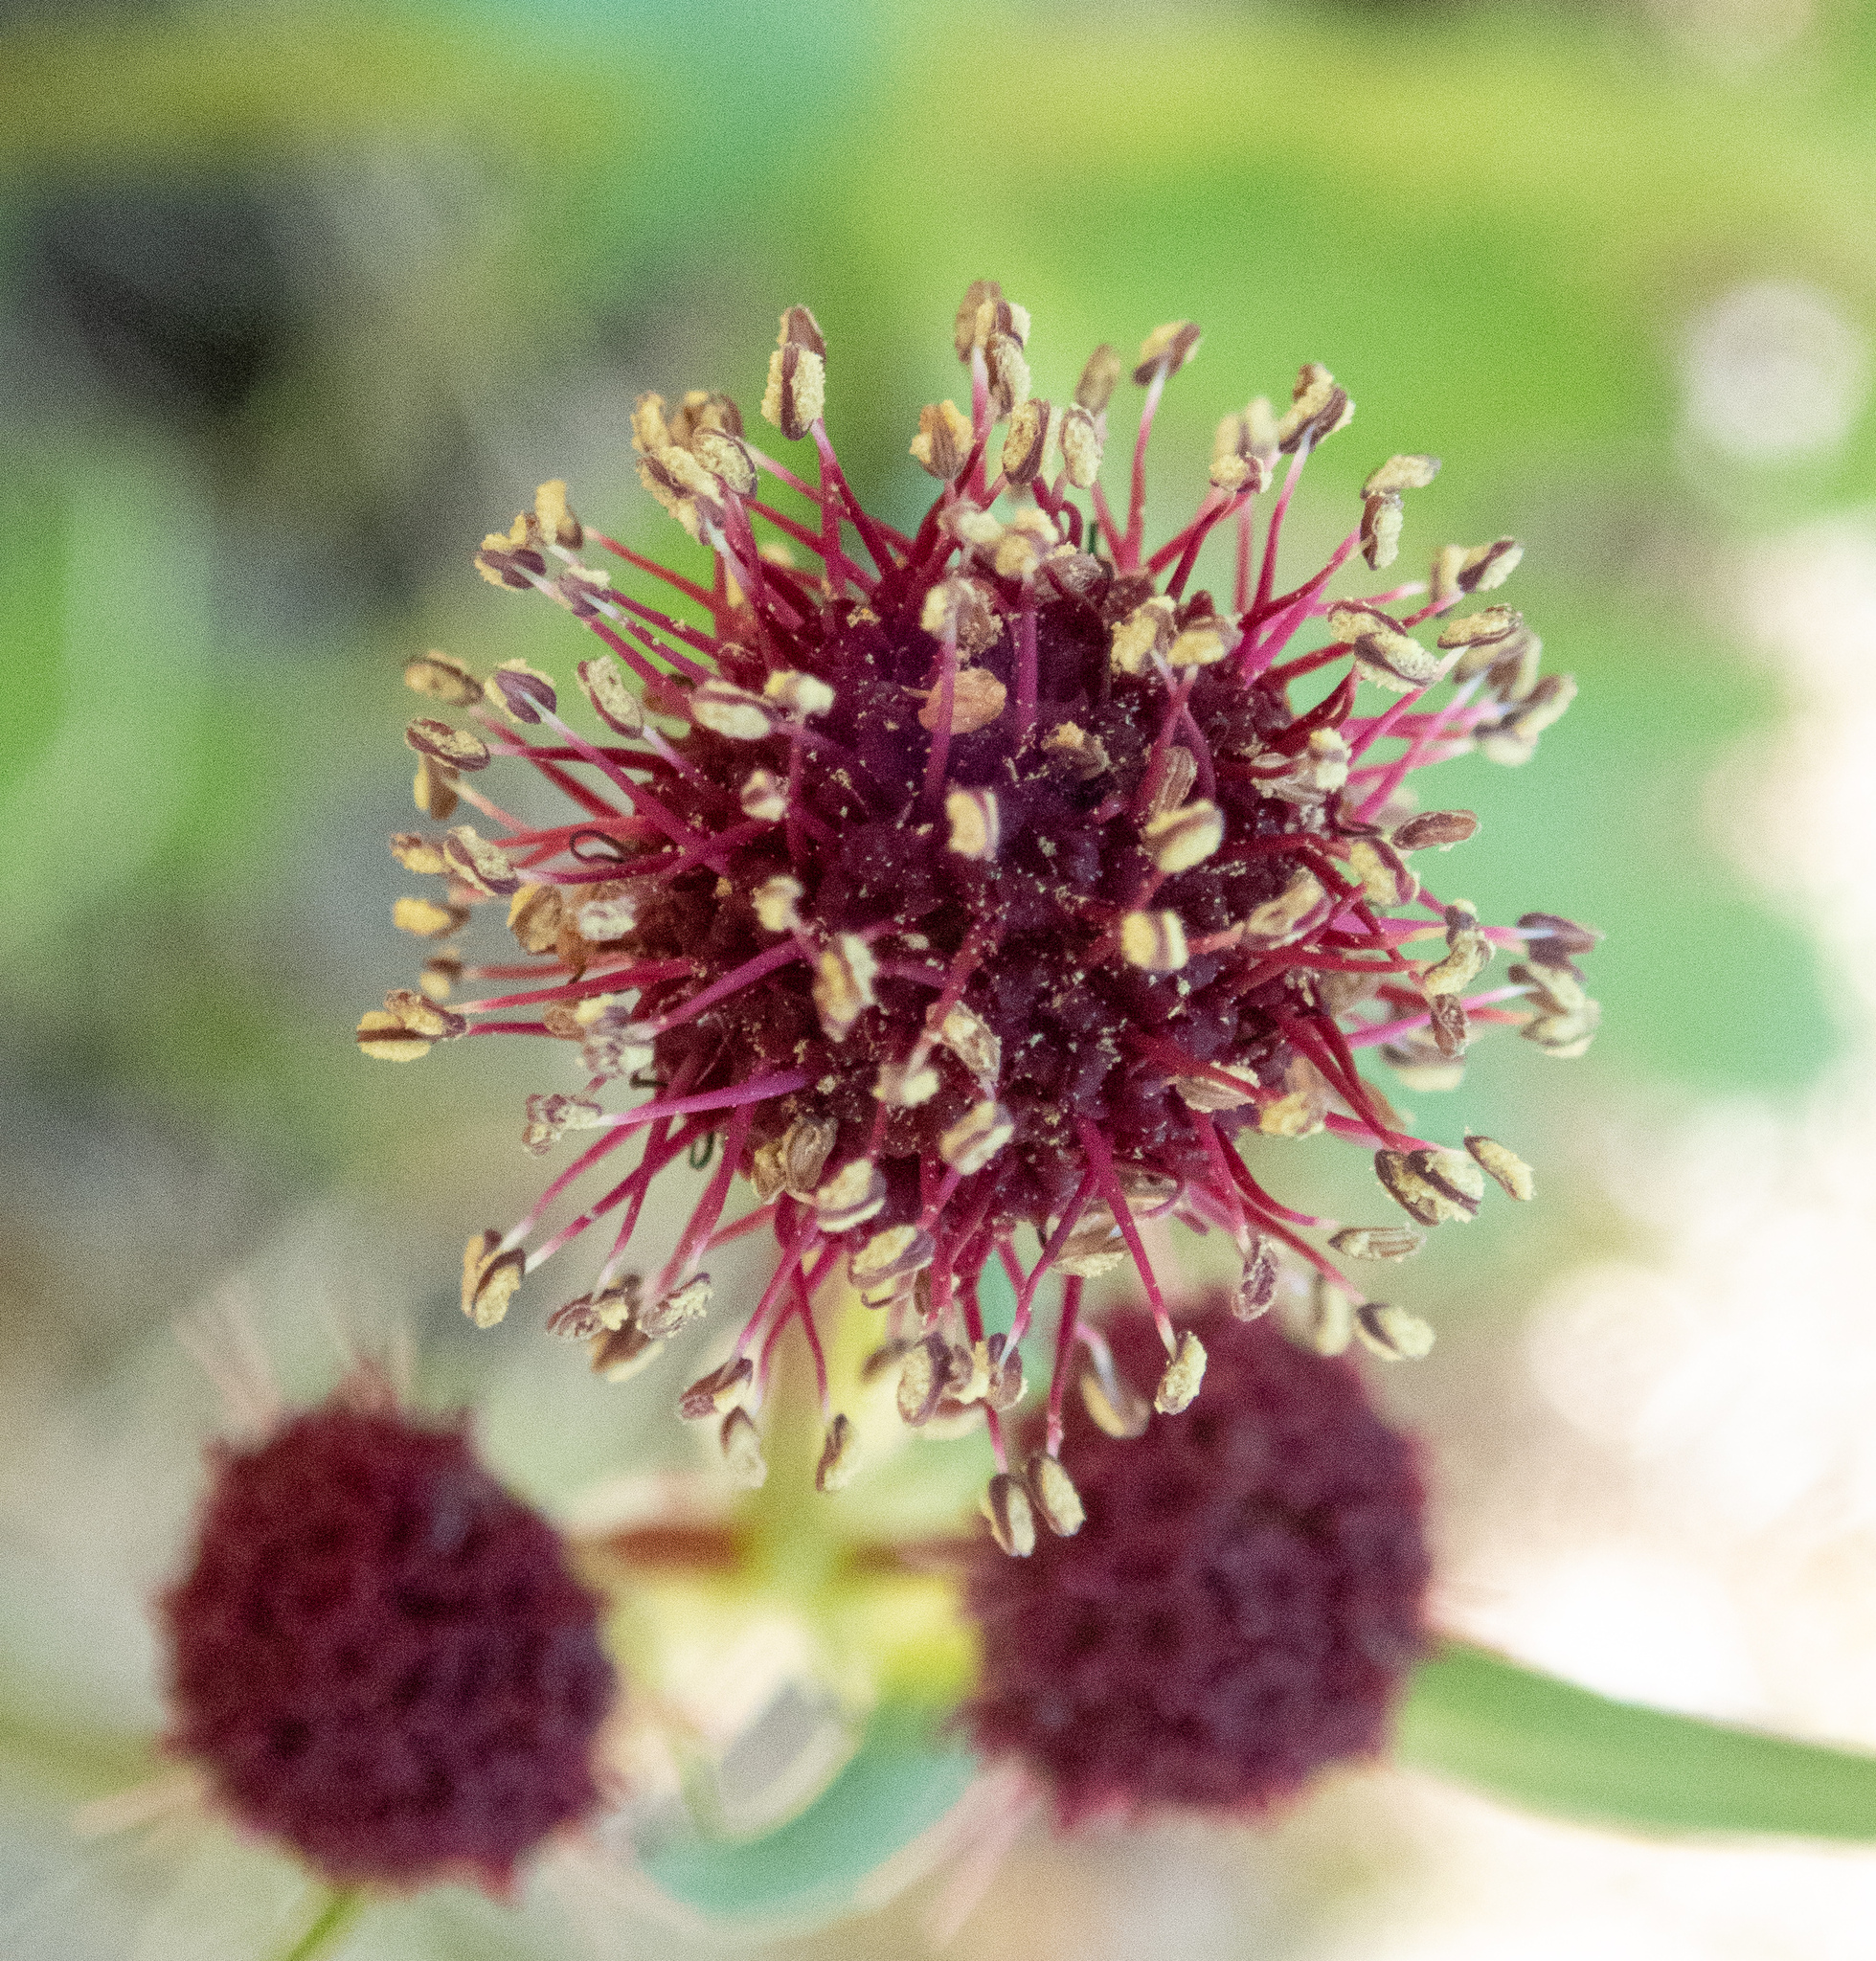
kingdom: Plantae
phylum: Tracheophyta
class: Magnoliopsida
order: Apiales
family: Apiaceae
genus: Sanicula
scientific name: Sanicula bipinnatifida
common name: Shoe-buttons
